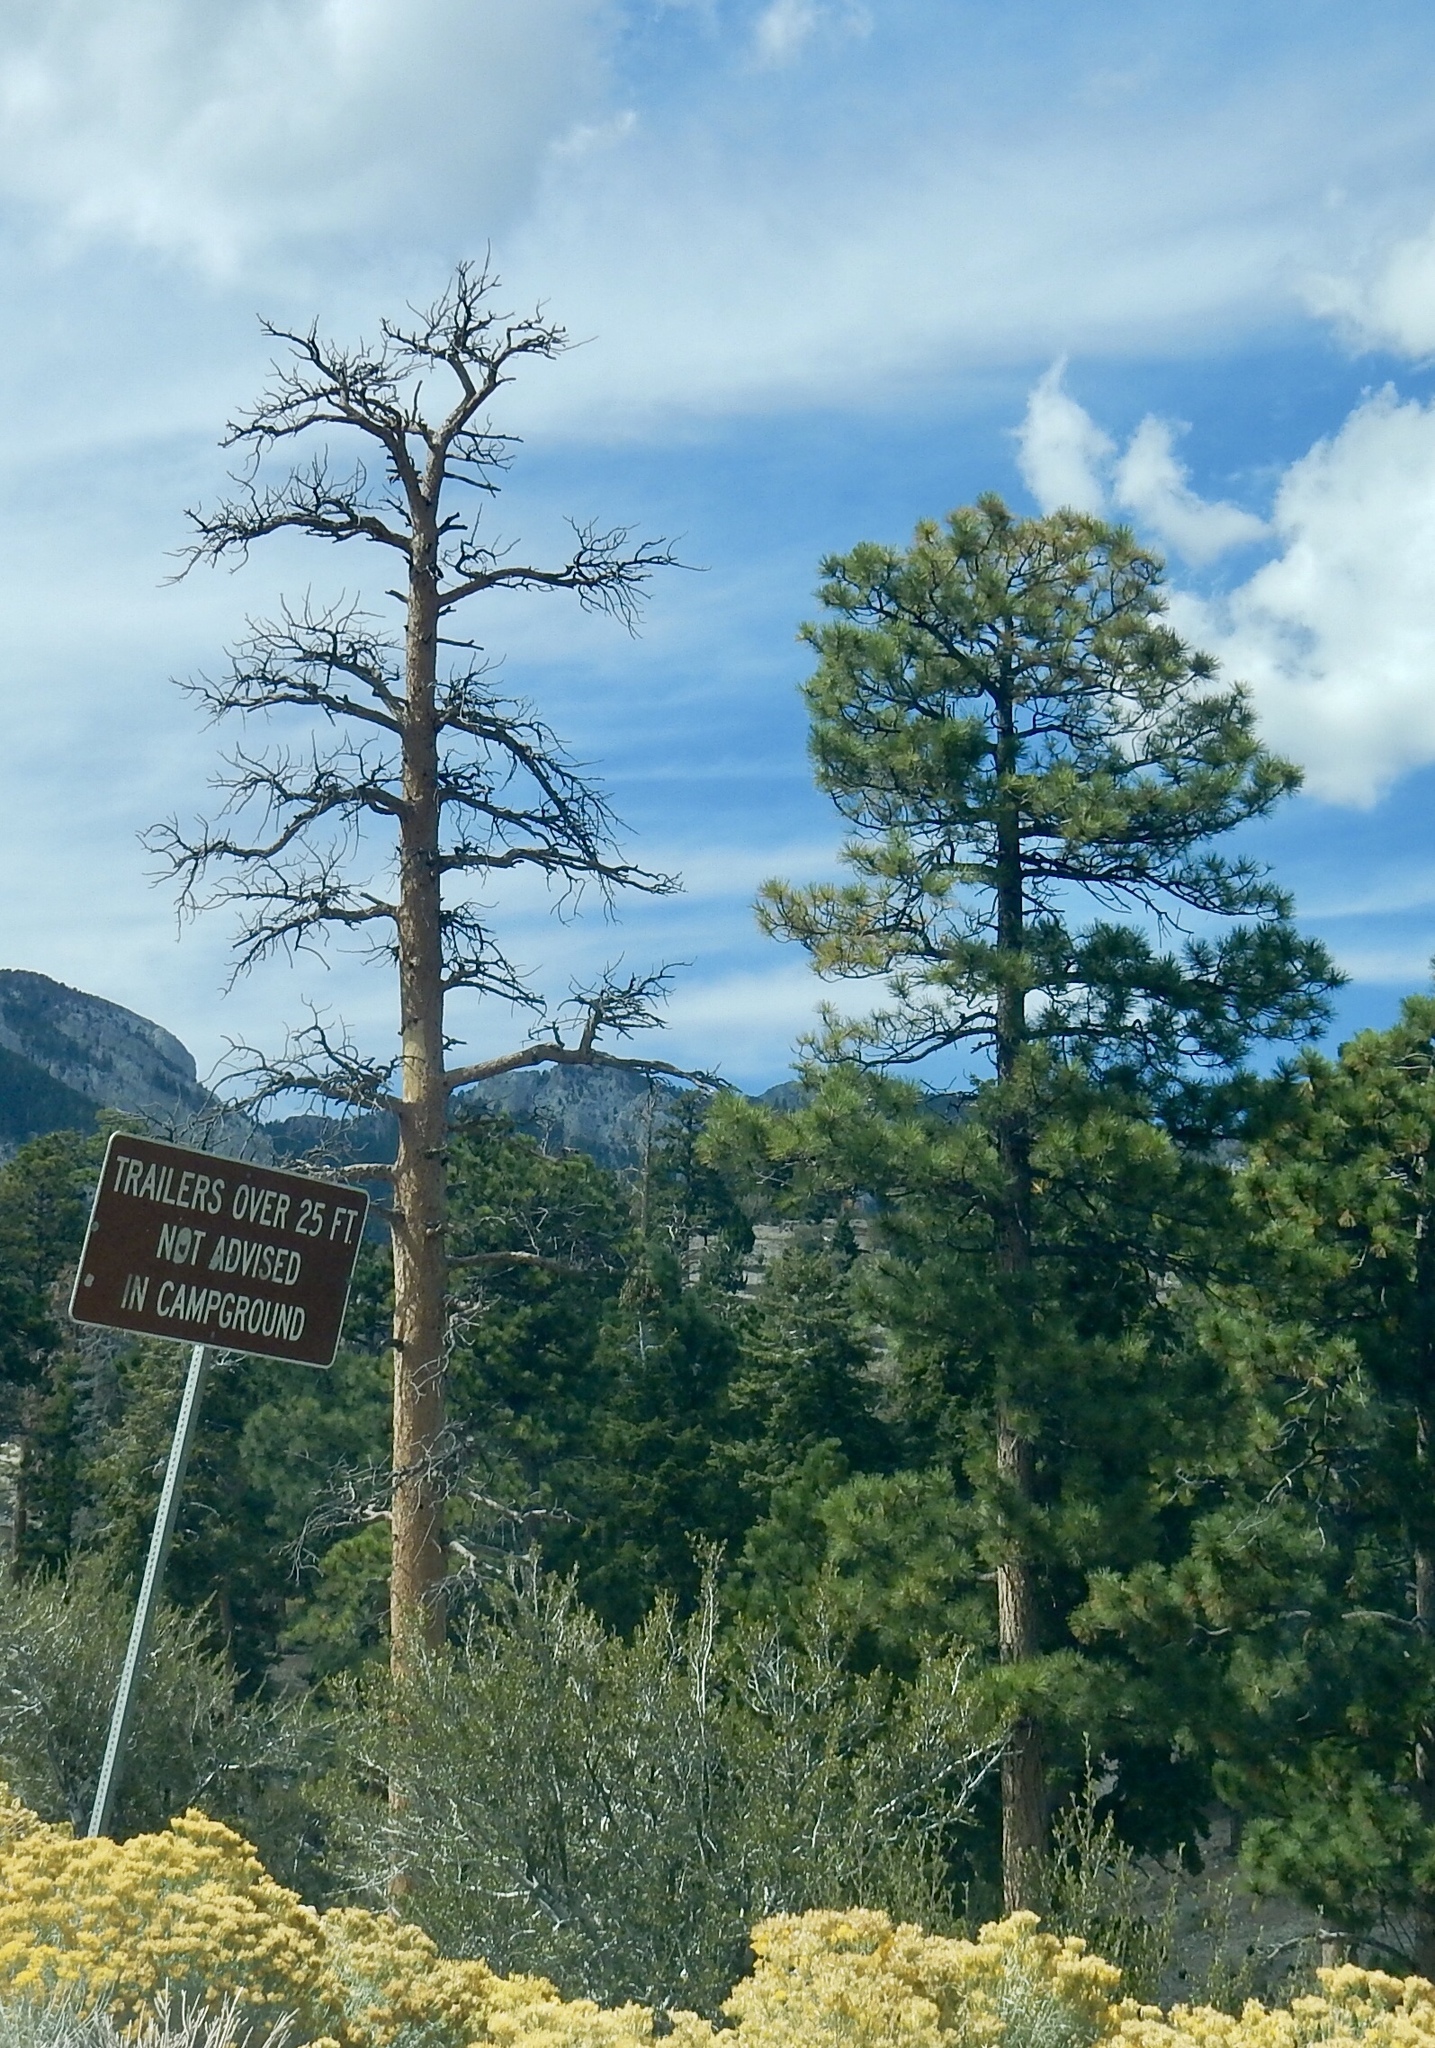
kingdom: Plantae
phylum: Tracheophyta
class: Pinopsida
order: Pinales
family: Pinaceae
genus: Pinus
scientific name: Pinus ponderosa
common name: Western yellow-pine
